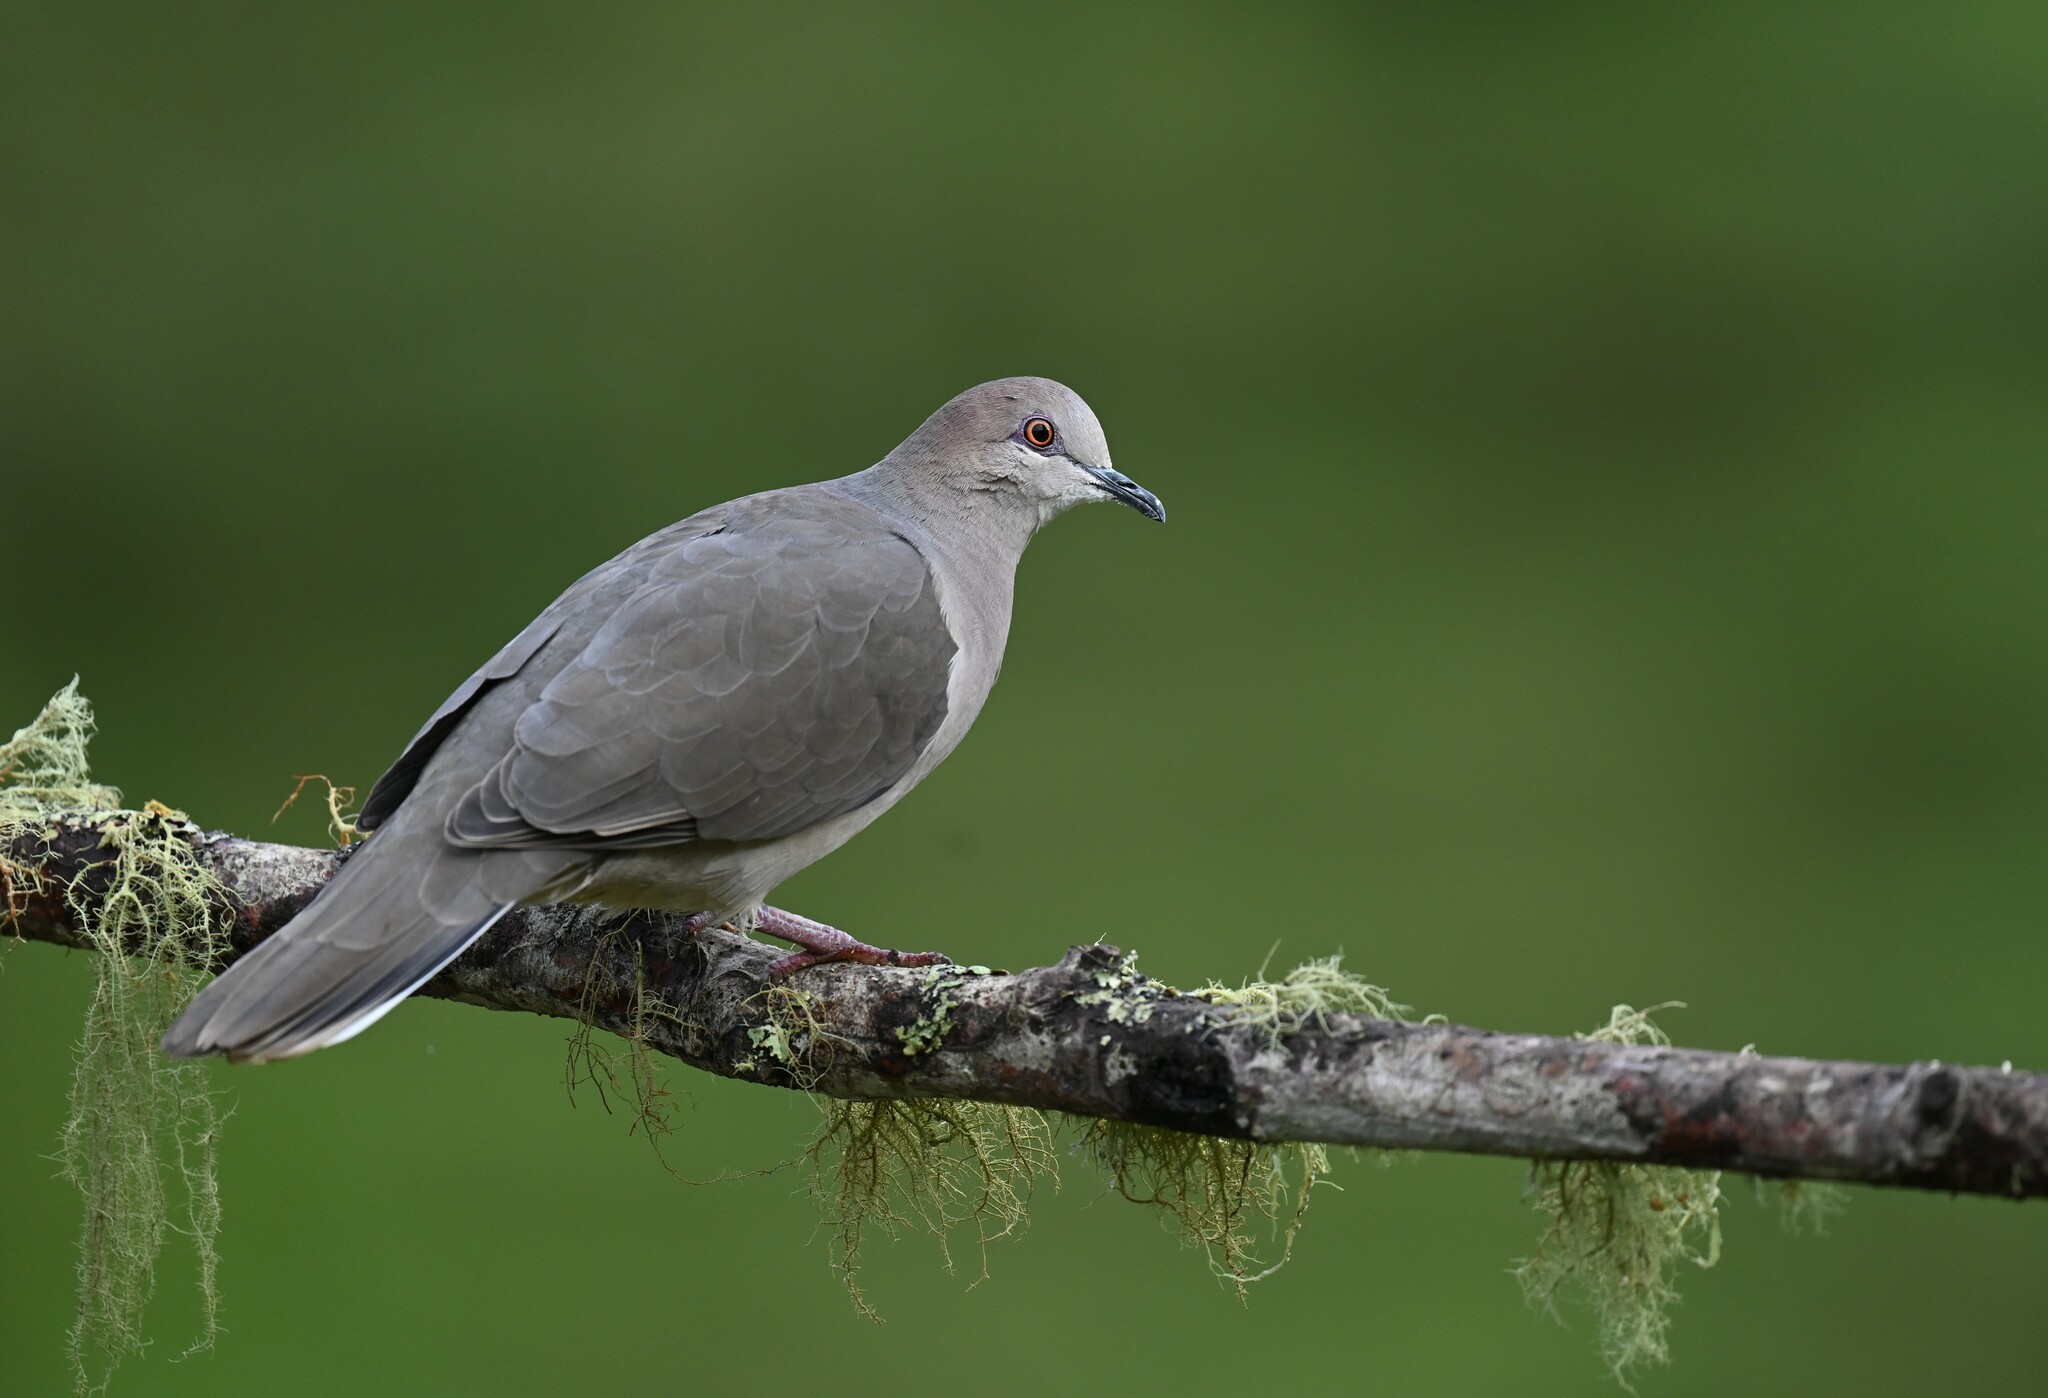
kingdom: Animalia
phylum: Chordata
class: Aves
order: Columbiformes
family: Columbidae
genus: Leptotila
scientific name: Leptotila verreauxi
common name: White-tipped dove
